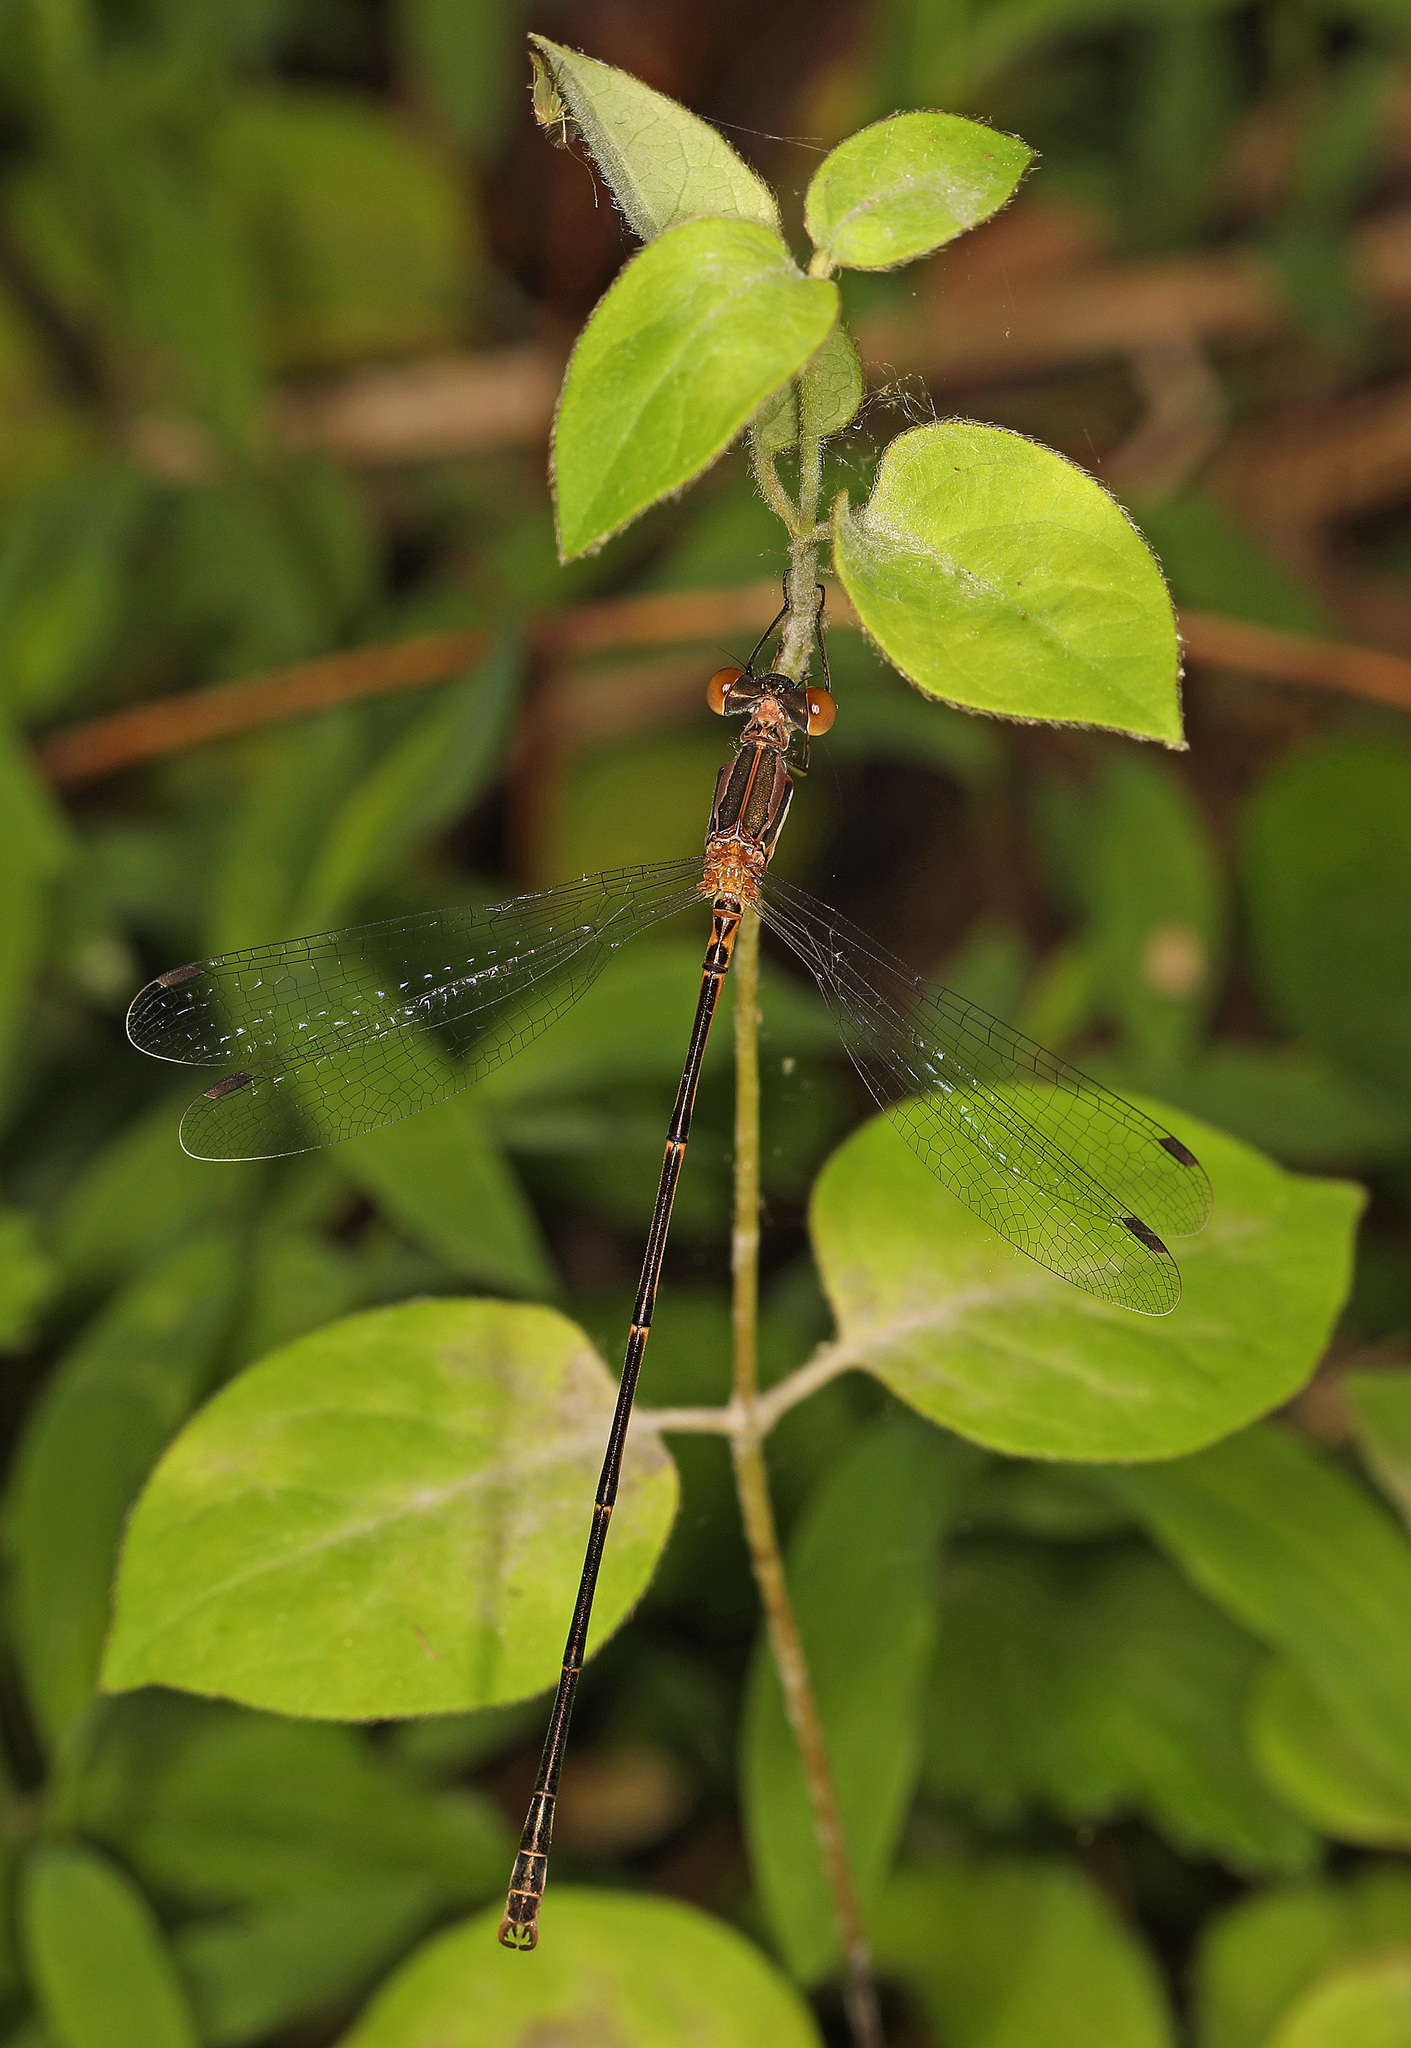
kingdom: Animalia
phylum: Arthropoda
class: Insecta
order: Odonata
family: Lestidae
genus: Lestes
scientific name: Lestes rectangularis
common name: Slender spreadwing
